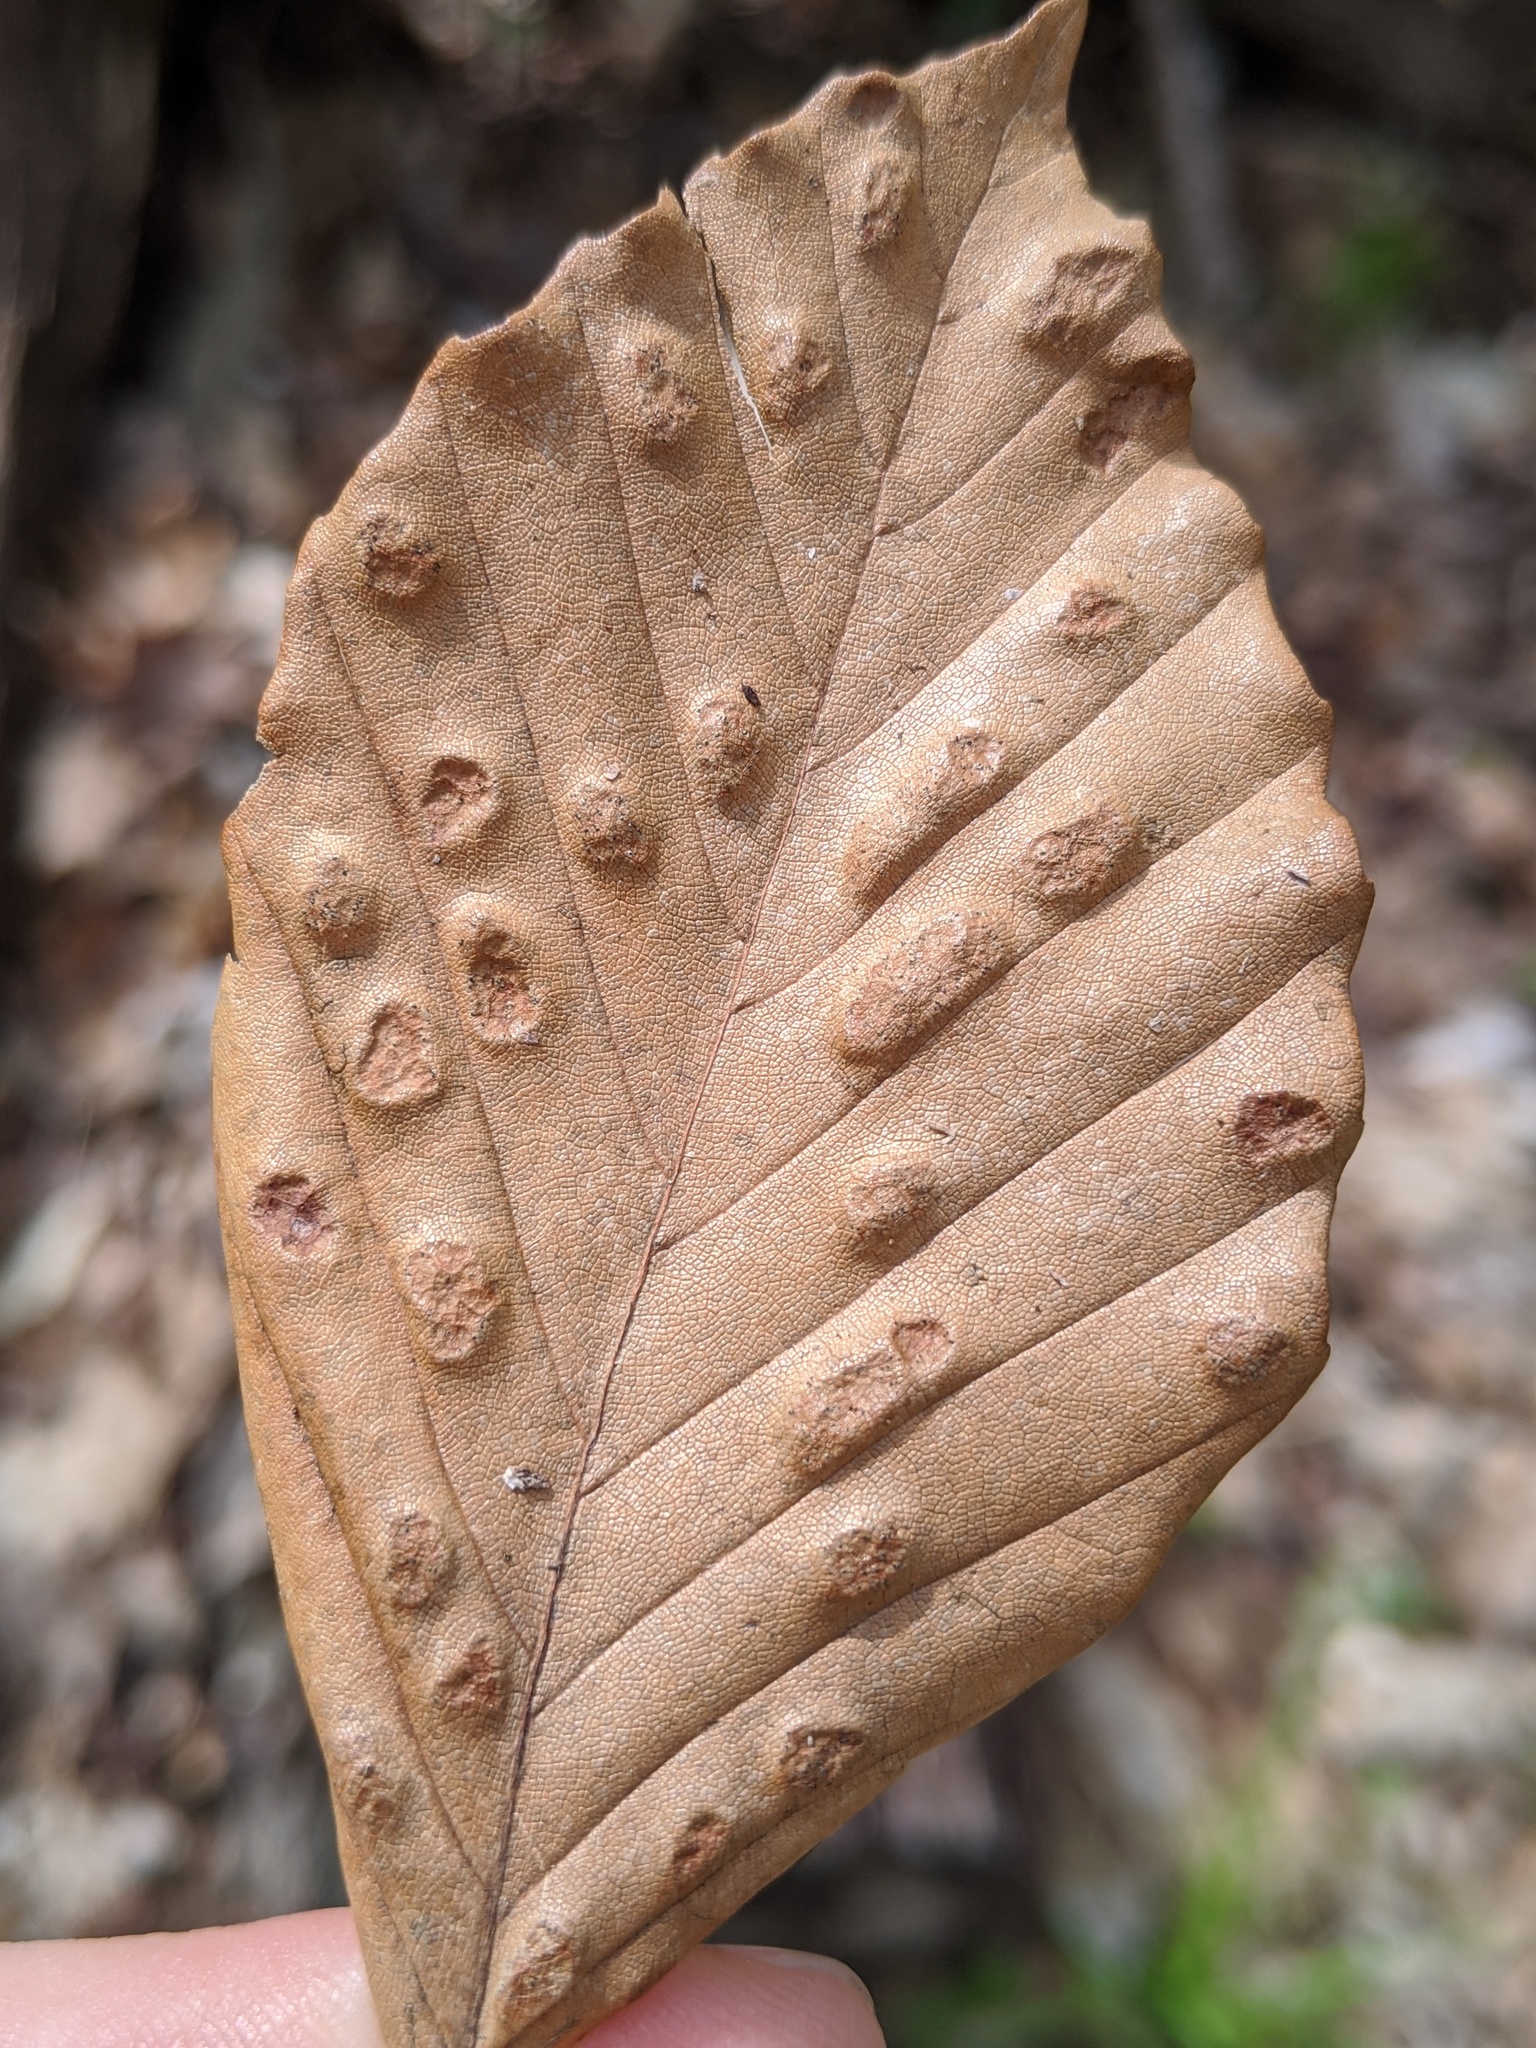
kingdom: Animalia
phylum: Arthropoda
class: Arachnida
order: Trombidiformes
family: Eriophyidae
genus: Acalitus
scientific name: Acalitus
